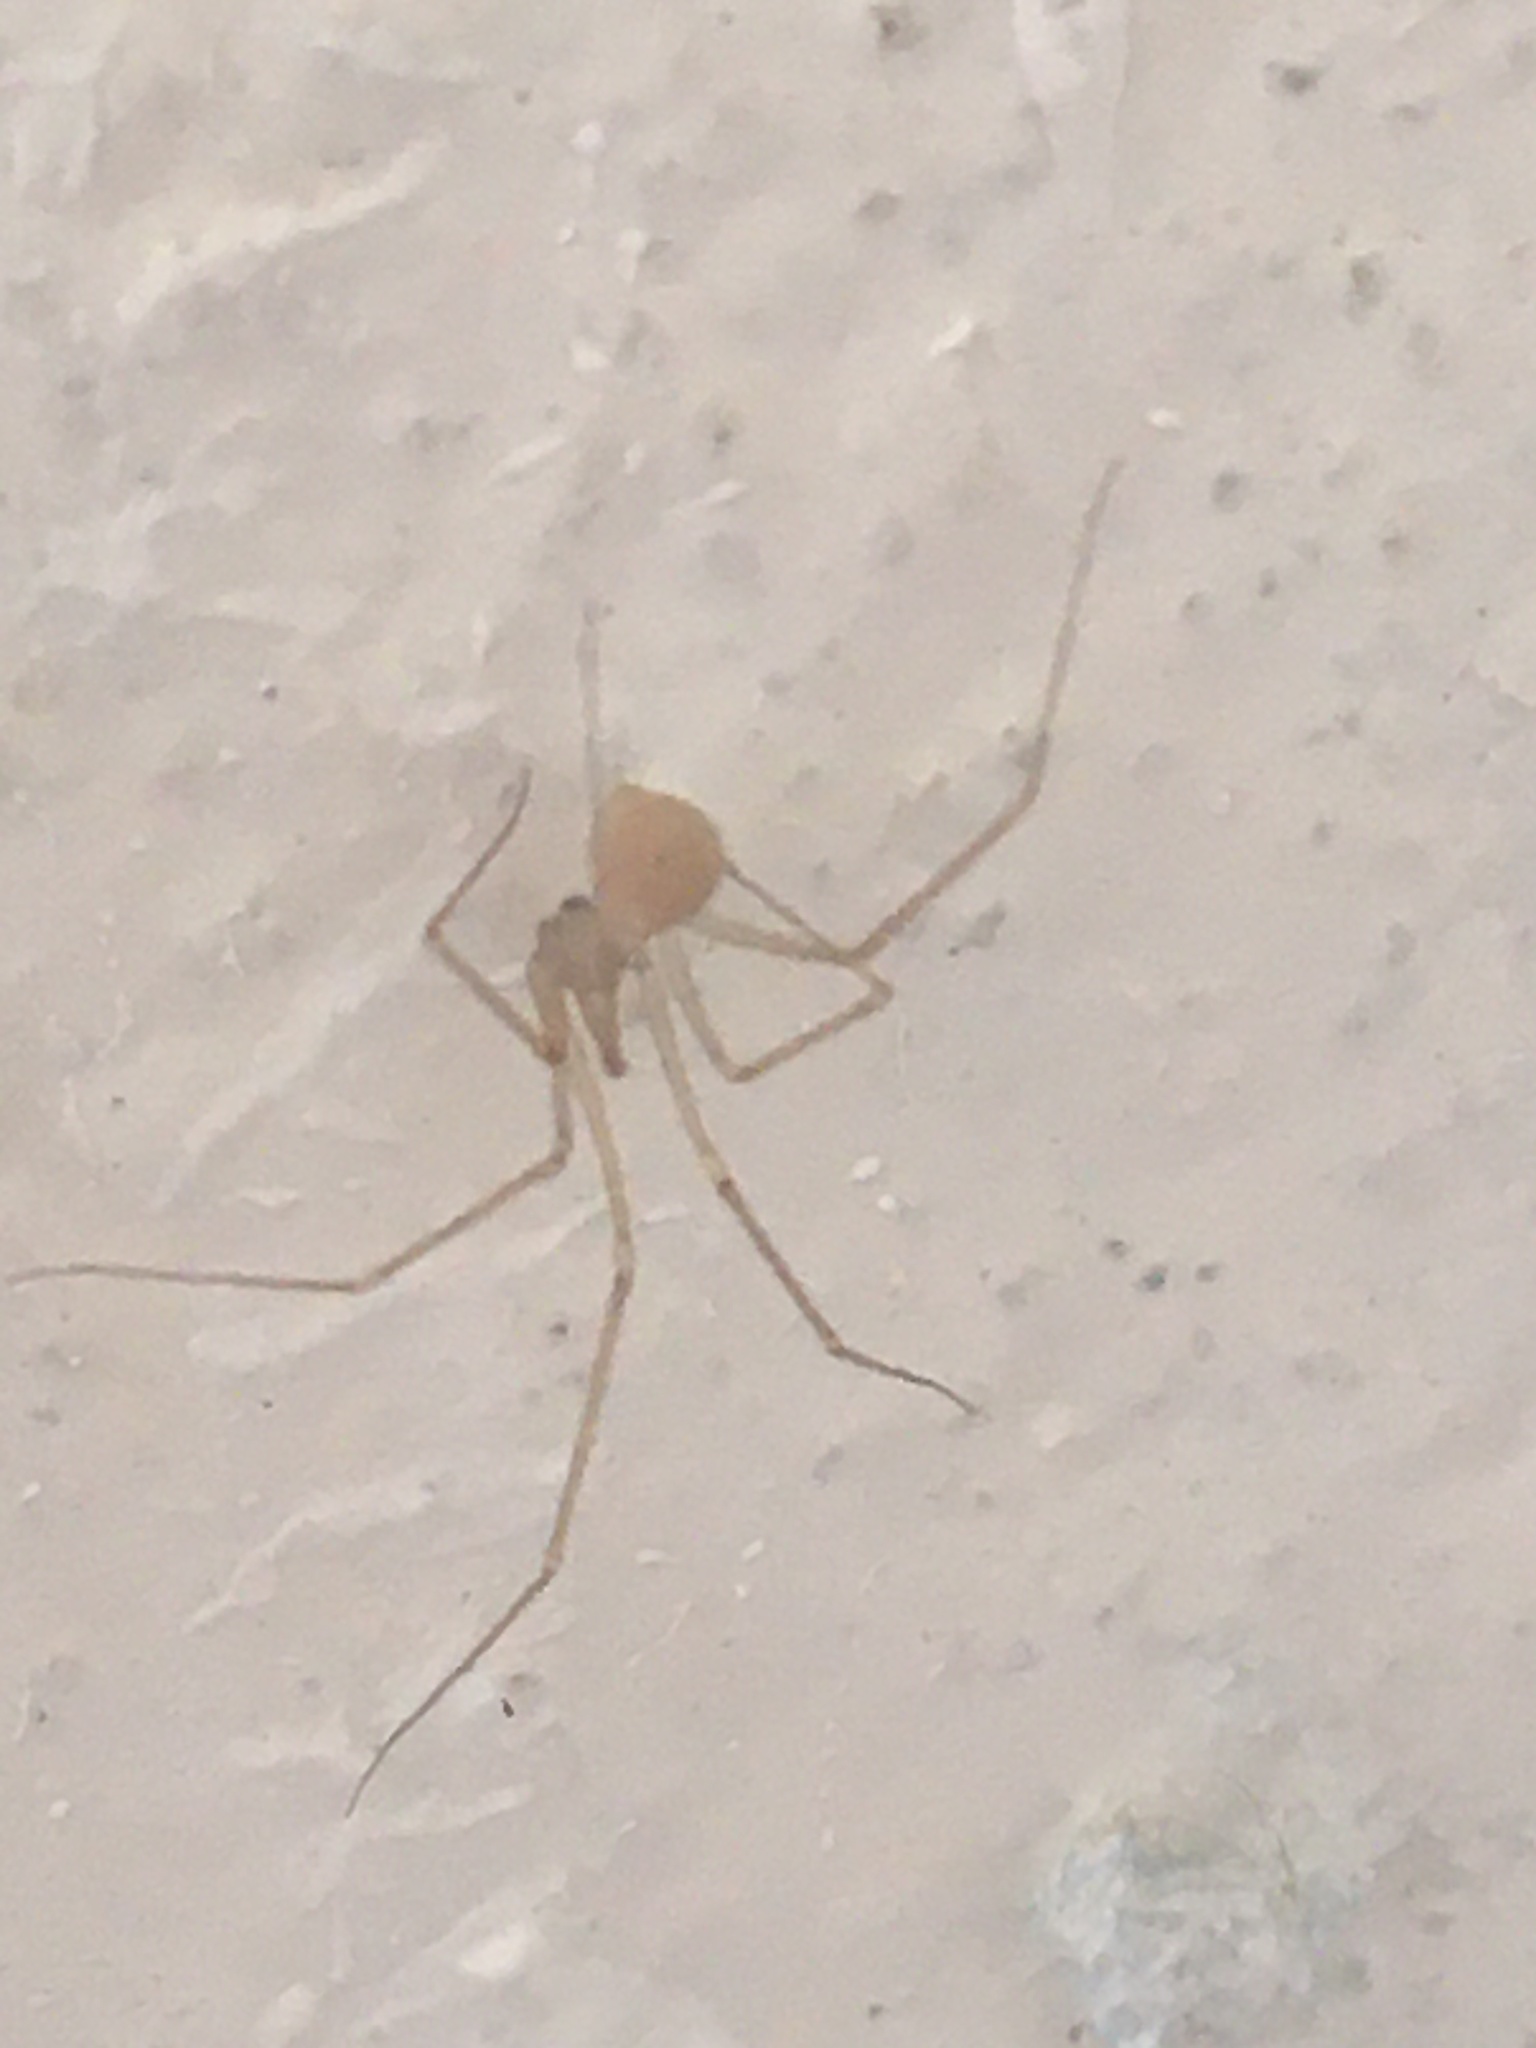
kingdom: Animalia
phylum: Arthropoda
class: Arachnida
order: Araneae
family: Pholcidae
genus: Spermophora
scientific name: Spermophora senoculata
